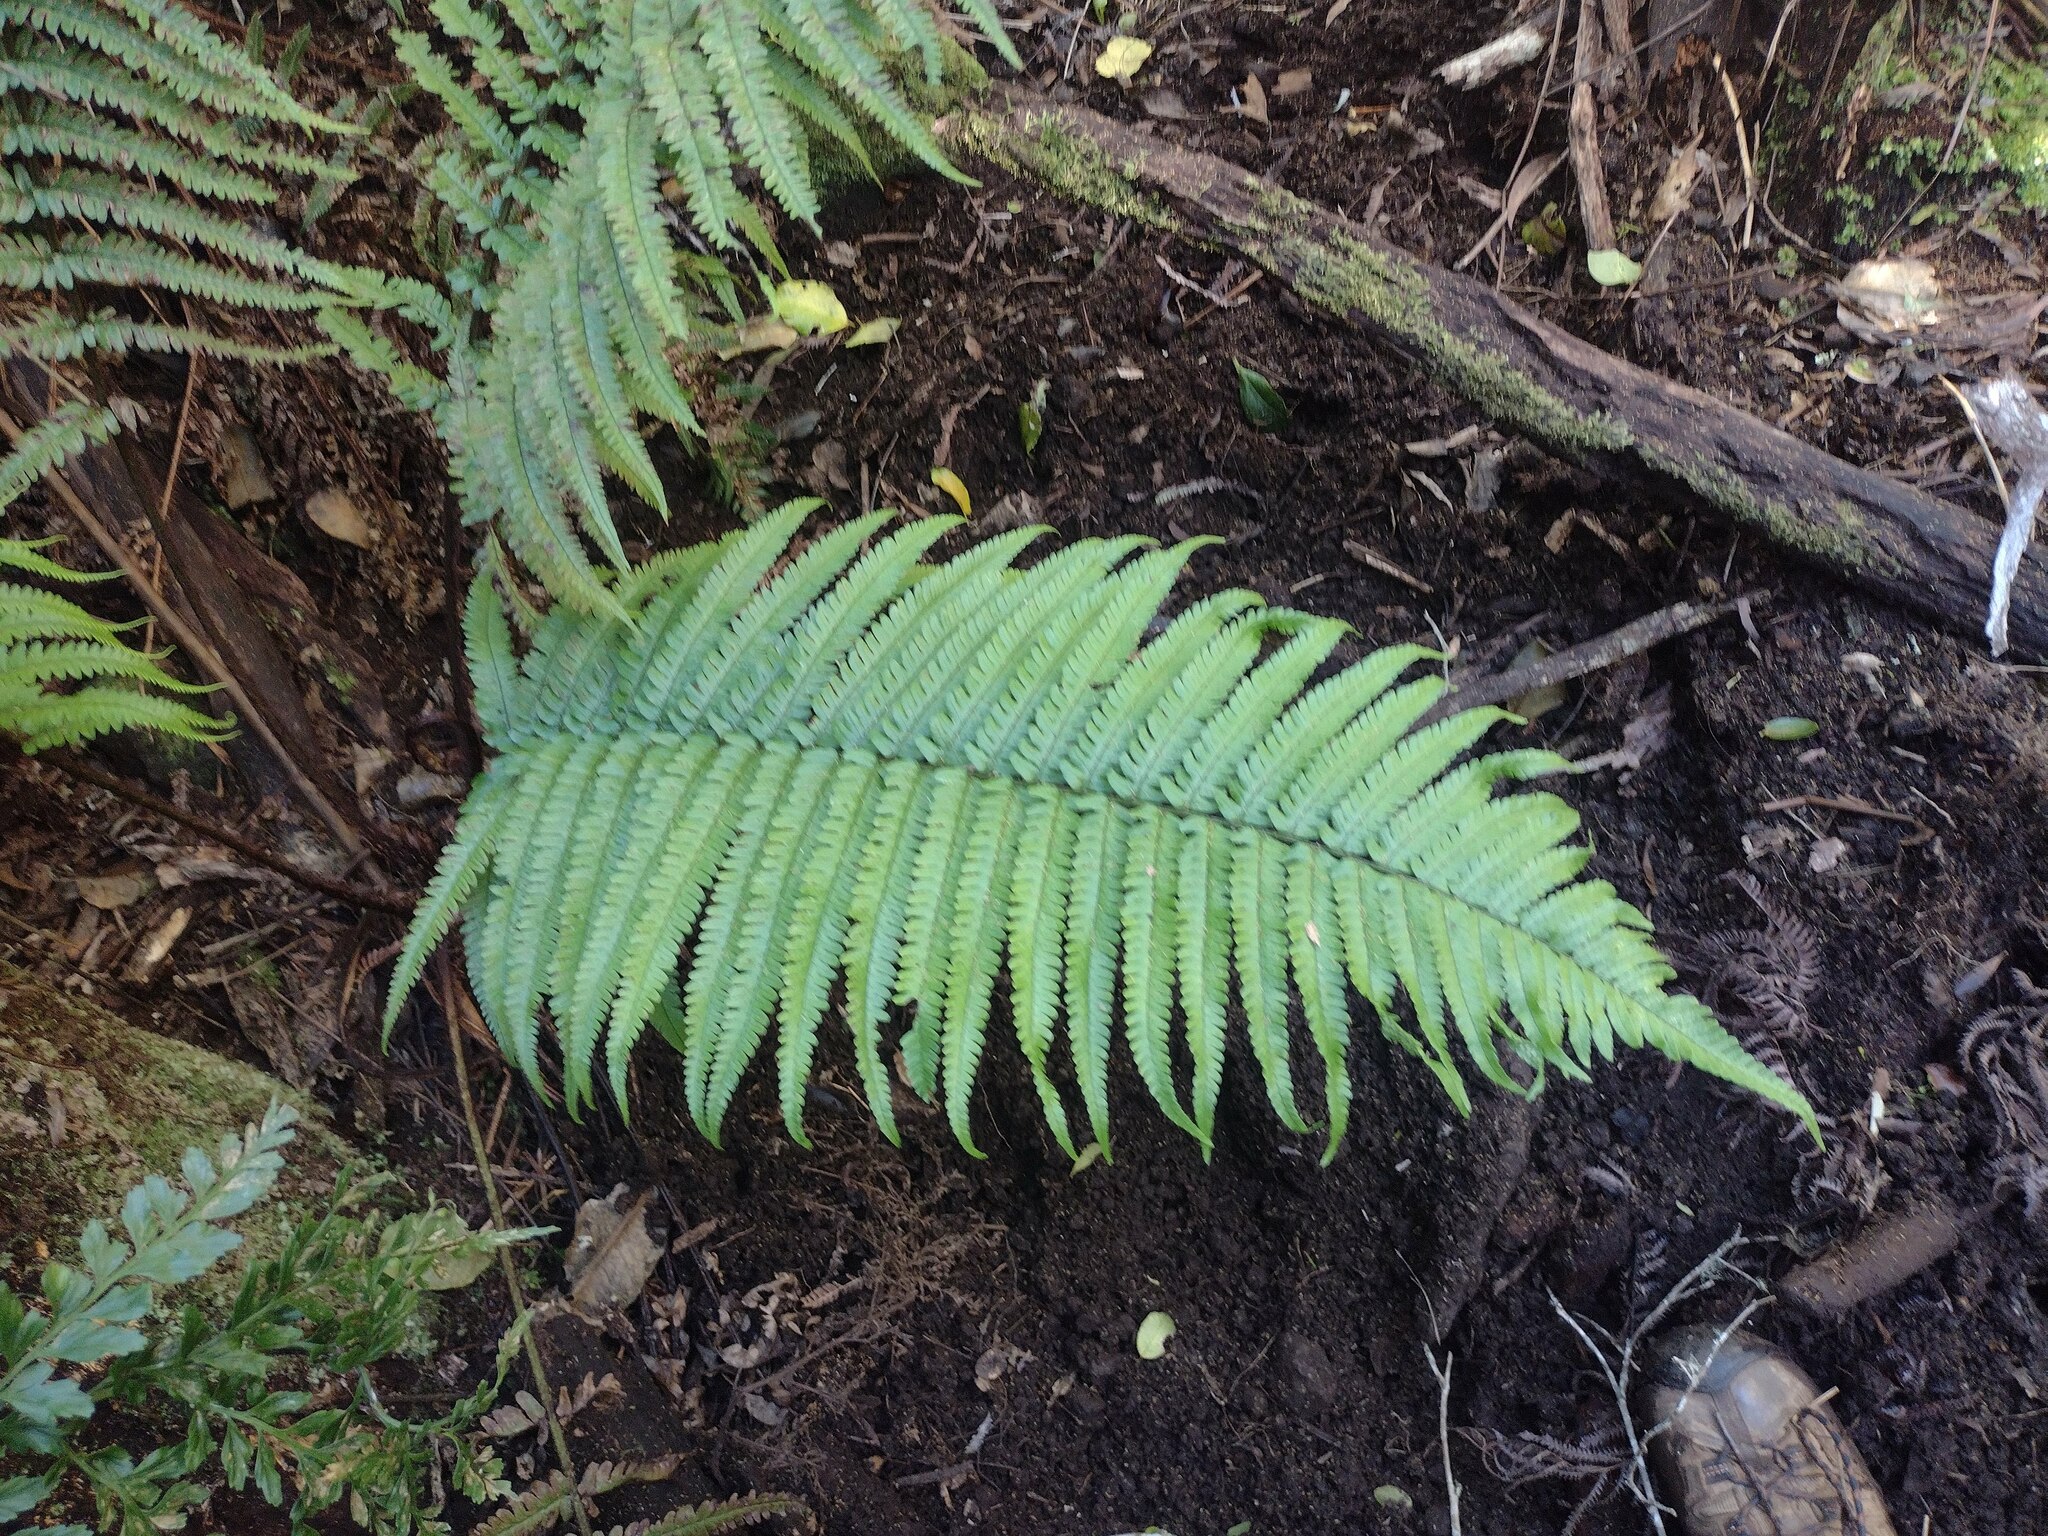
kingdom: Plantae
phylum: Tracheophyta
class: Polypodiopsida
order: Polypodiales
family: Dryopteridaceae
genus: Dryopteris
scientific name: Dryopteris fuscoatra
